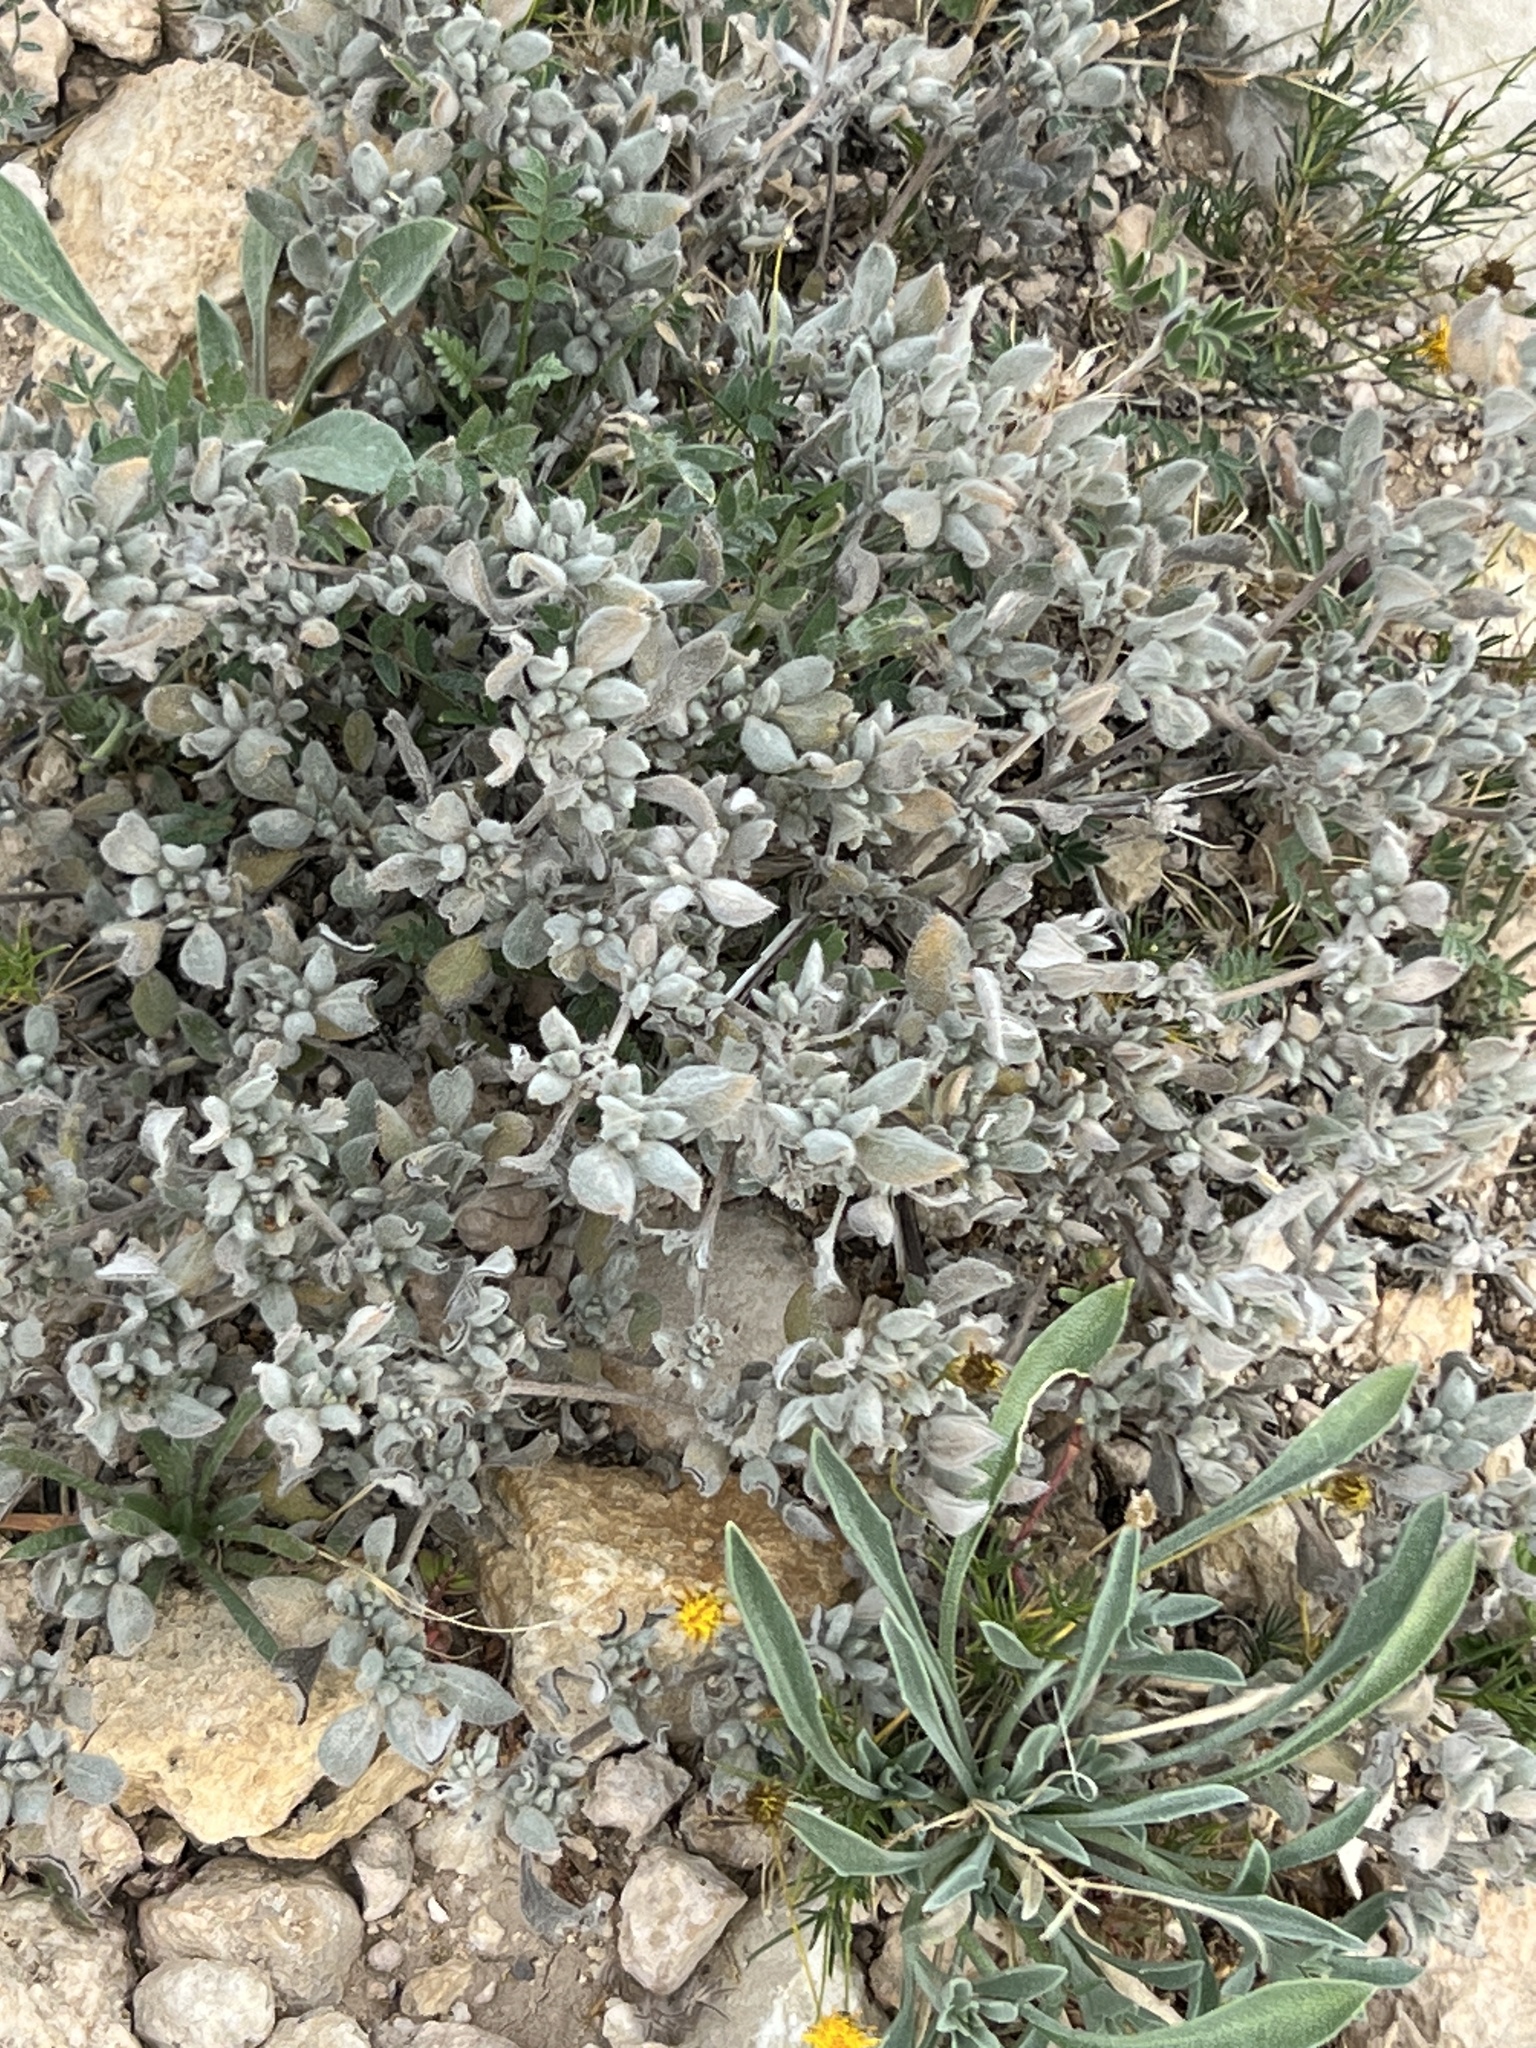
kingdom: Plantae
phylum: Tracheophyta
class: Magnoliopsida
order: Boraginales
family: Ehretiaceae
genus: Tiquilia
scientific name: Tiquilia canescens
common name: Hairy tiquilia
